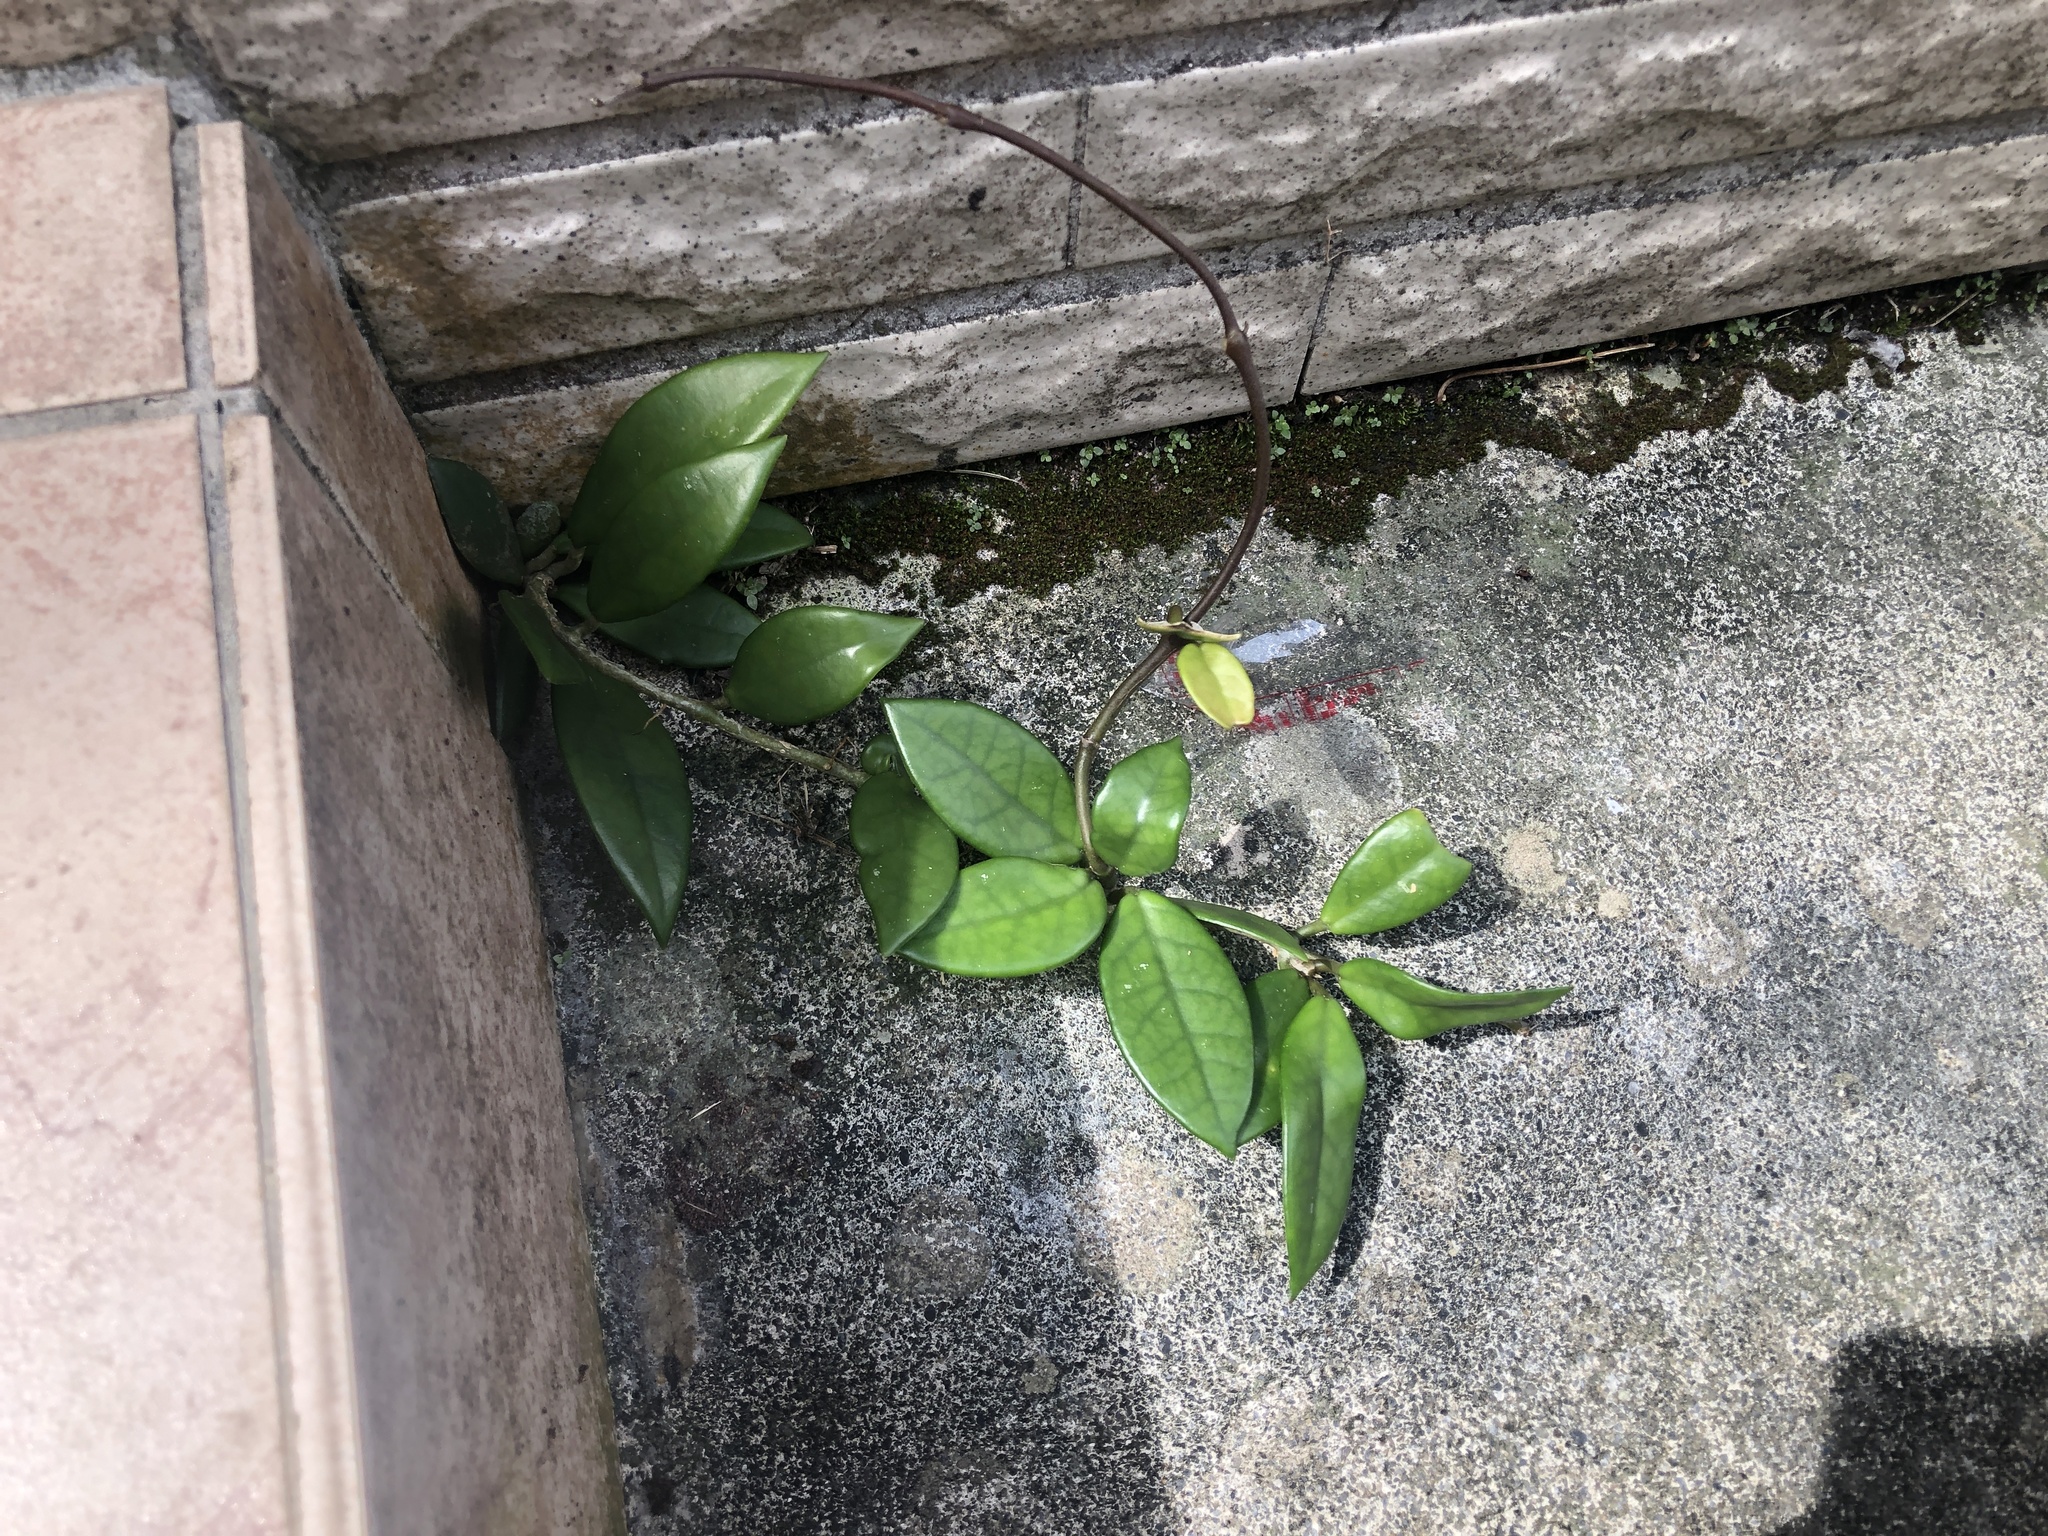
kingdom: Plantae
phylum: Tracheophyta
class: Magnoliopsida
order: Gentianales
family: Apocynaceae
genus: Hoya
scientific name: Hoya carnosa
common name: Honeyplant
